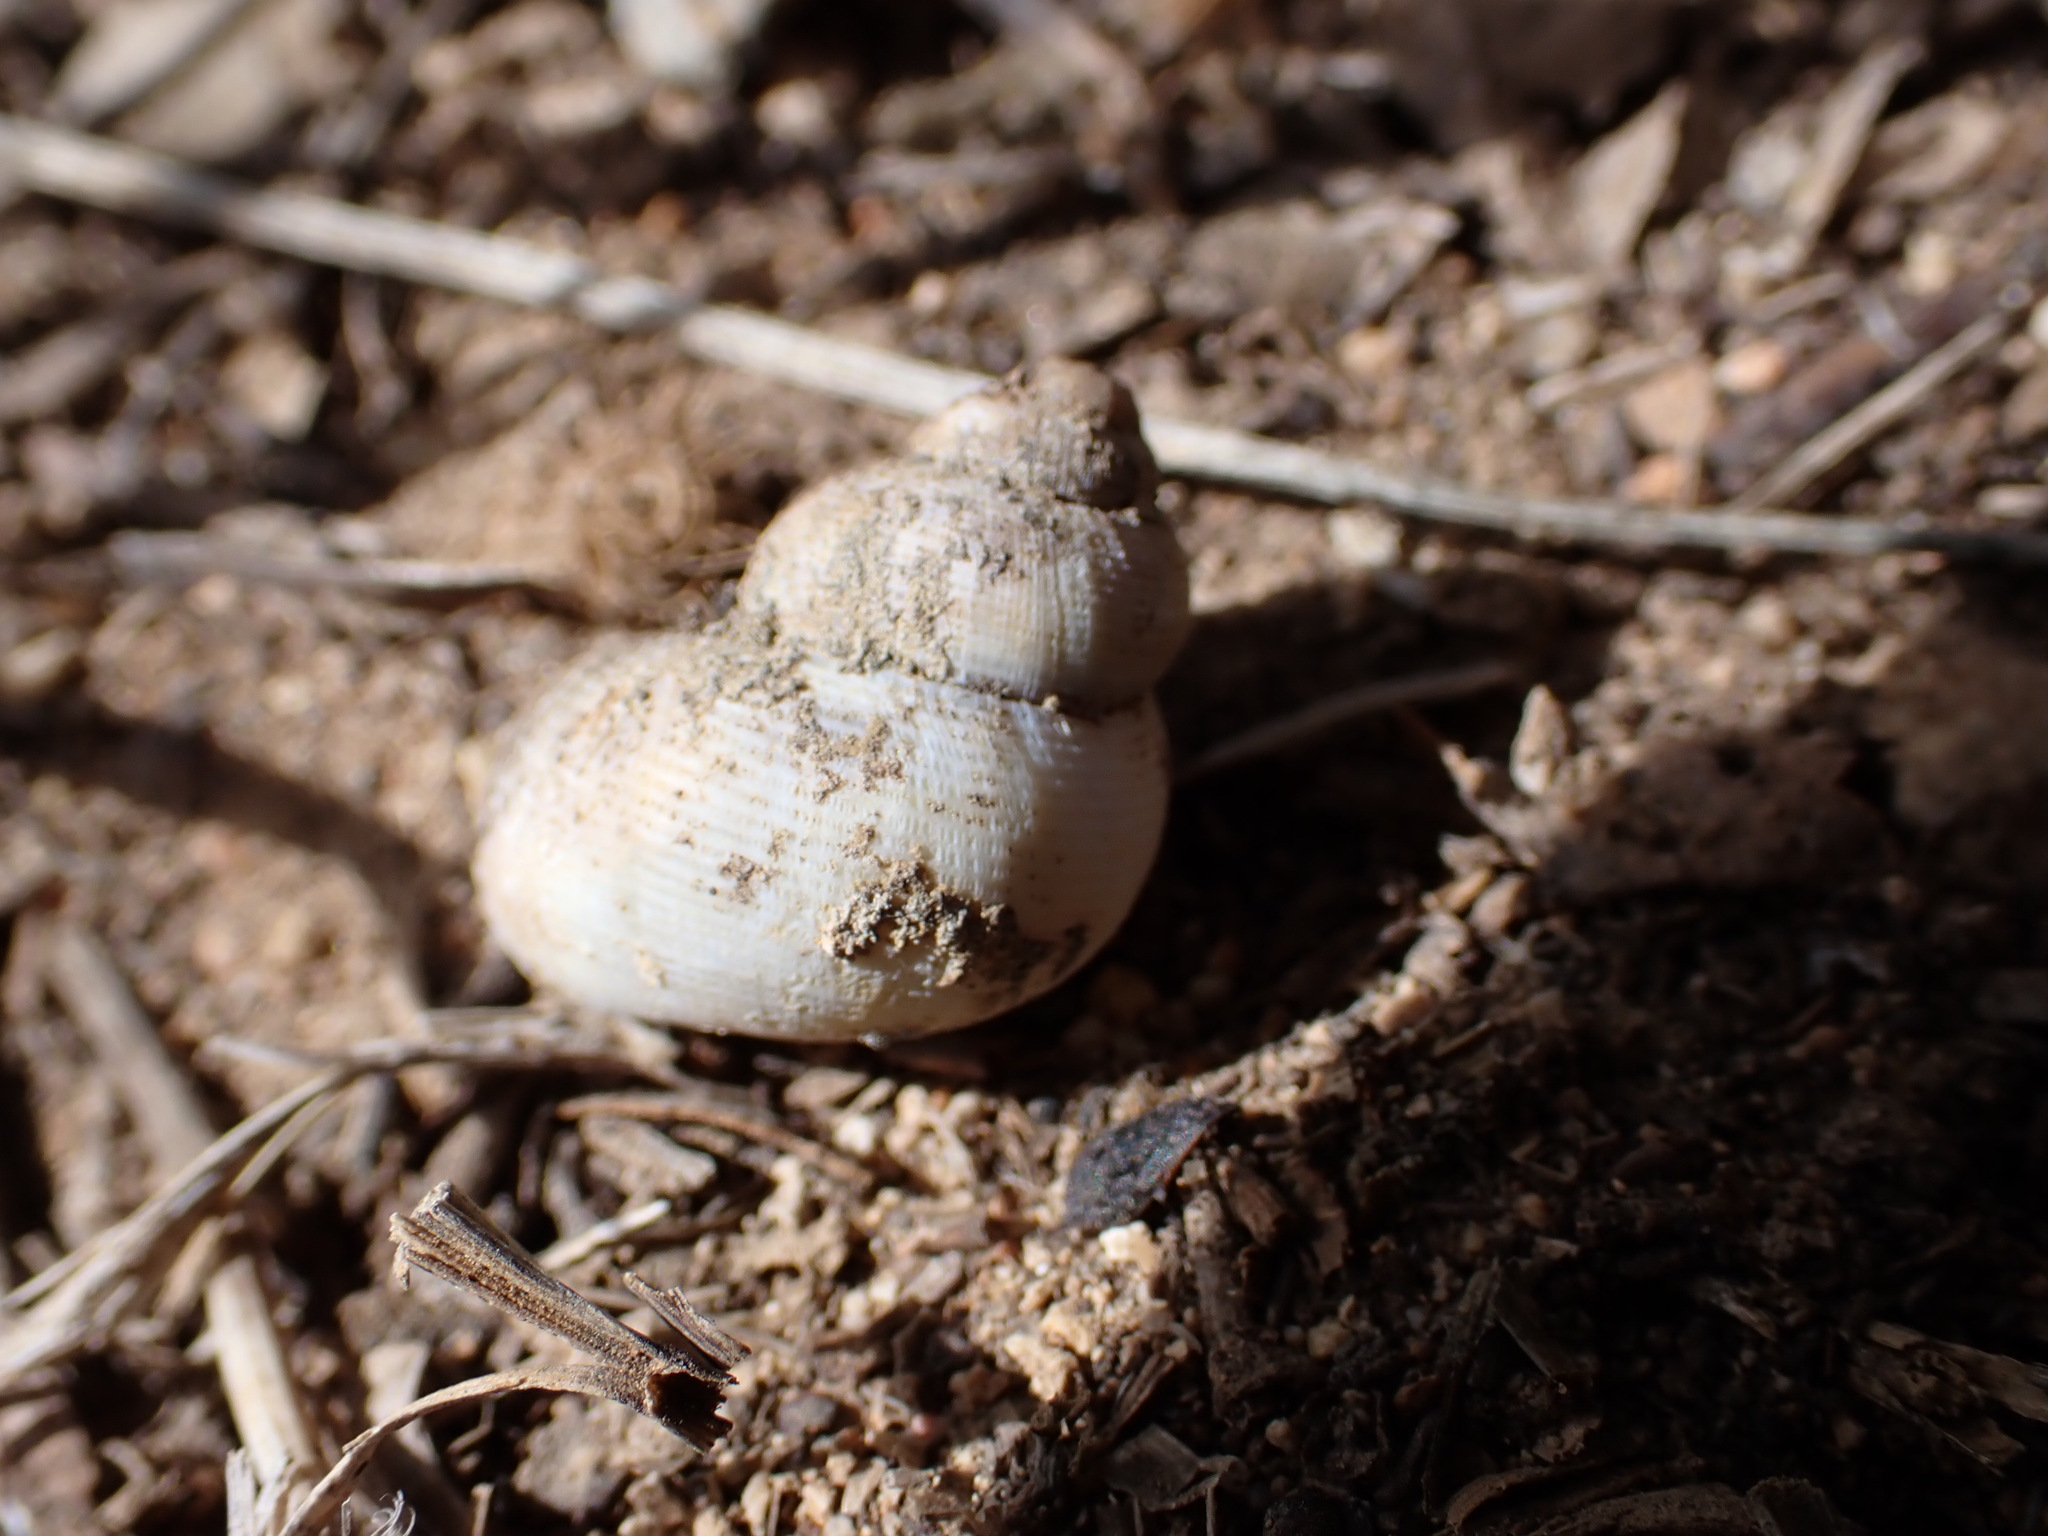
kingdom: Animalia
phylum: Mollusca
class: Gastropoda
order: Littorinimorpha
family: Pomatiidae
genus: Pomatias
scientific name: Pomatias elegans
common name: Red-mouthed snail
